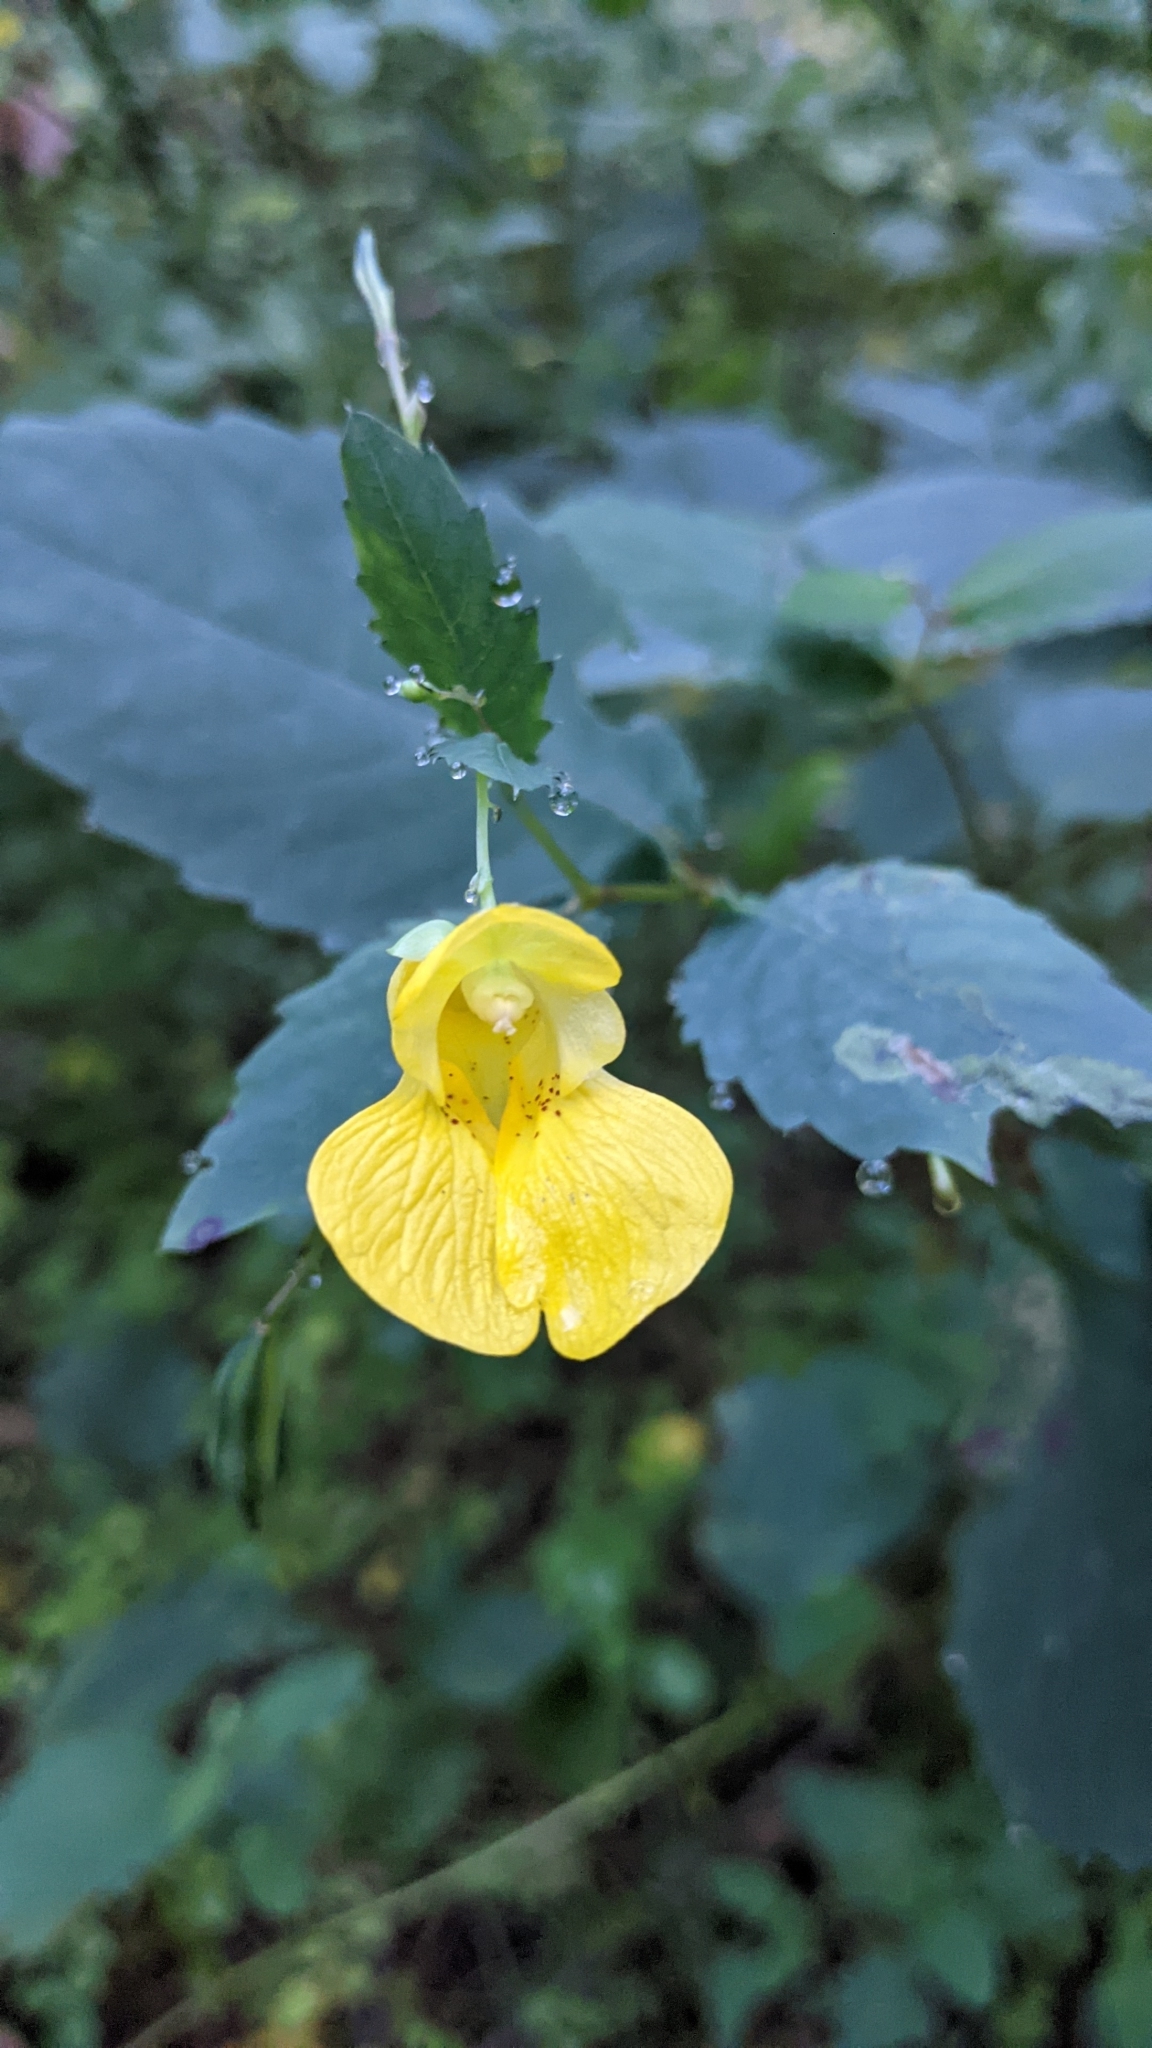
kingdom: Plantae
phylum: Tracheophyta
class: Magnoliopsida
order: Ericales
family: Balsaminaceae
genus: Impatiens
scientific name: Impatiens pallida
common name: Pale snapweed
